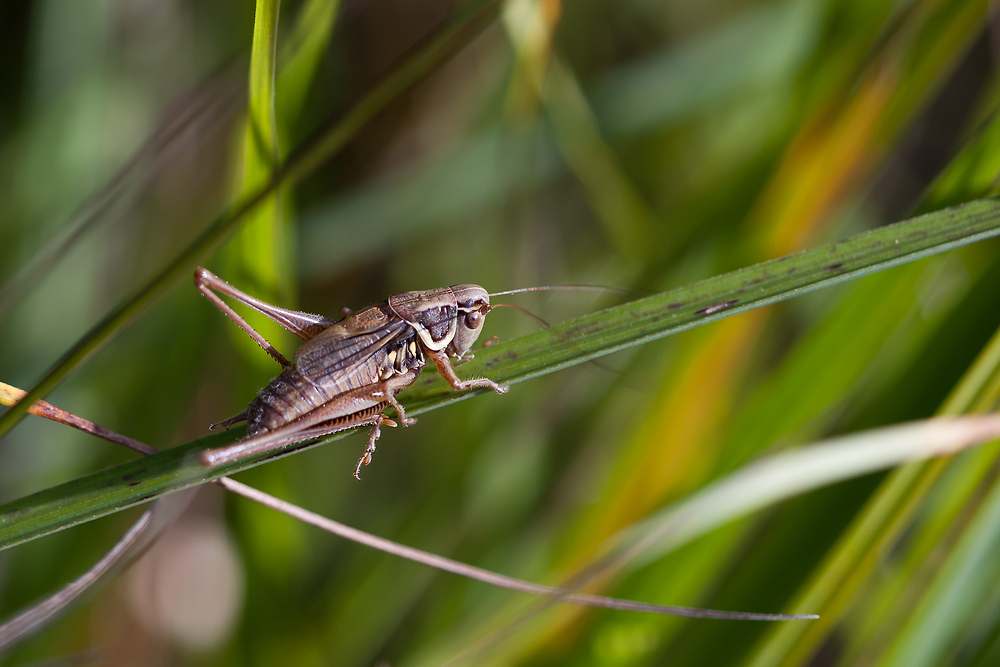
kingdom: Animalia
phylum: Arthropoda
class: Insecta
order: Orthoptera
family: Tettigoniidae
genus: Roeseliana
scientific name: Roeseliana roeselii
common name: Roesel's bush cricket
